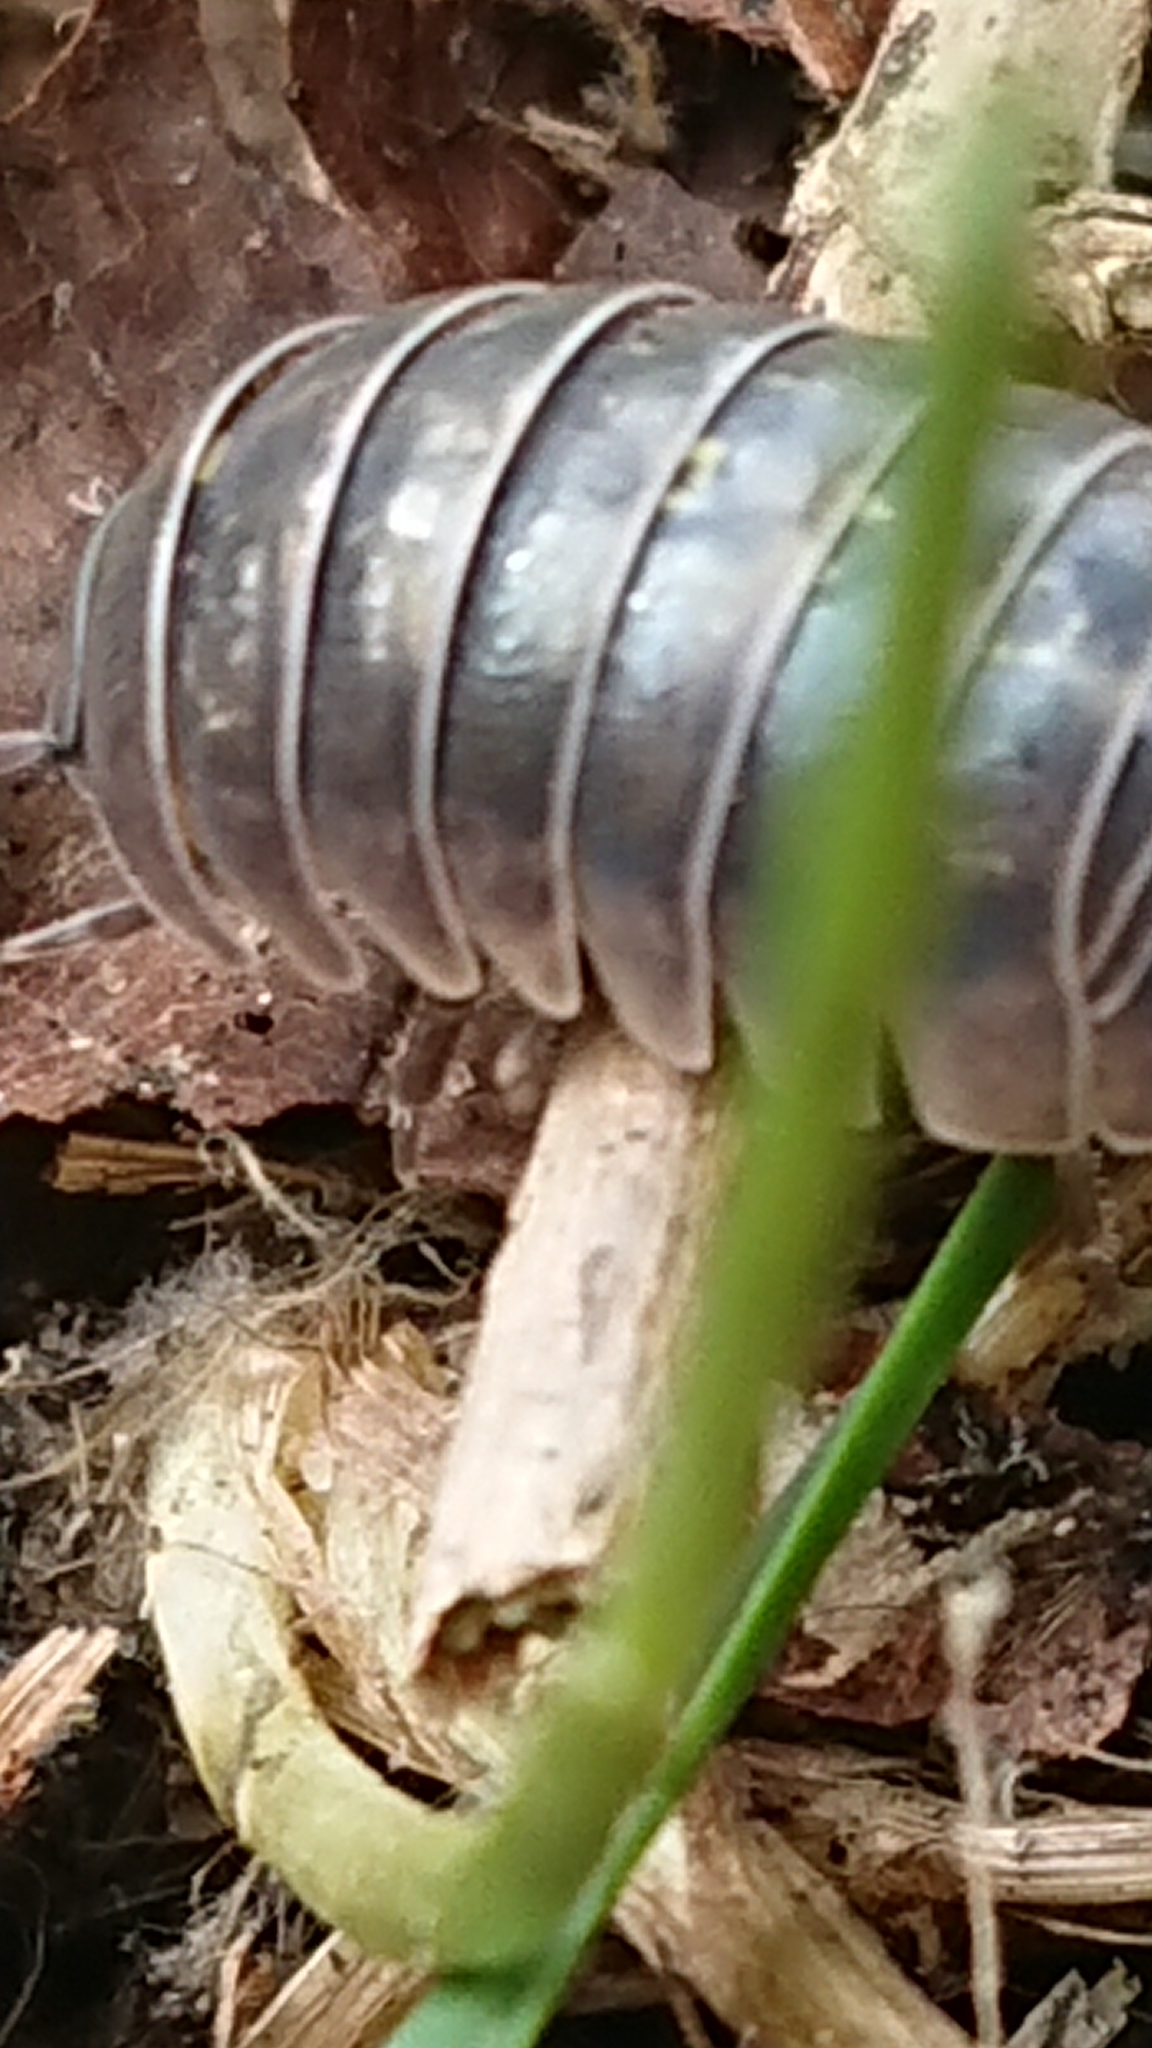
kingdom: Animalia
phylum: Arthropoda
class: Malacostraca
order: Isopoda
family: Armadillidiidae
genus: Armadillidium
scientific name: Armadillidium vulgare
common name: Common pill woodlouse
